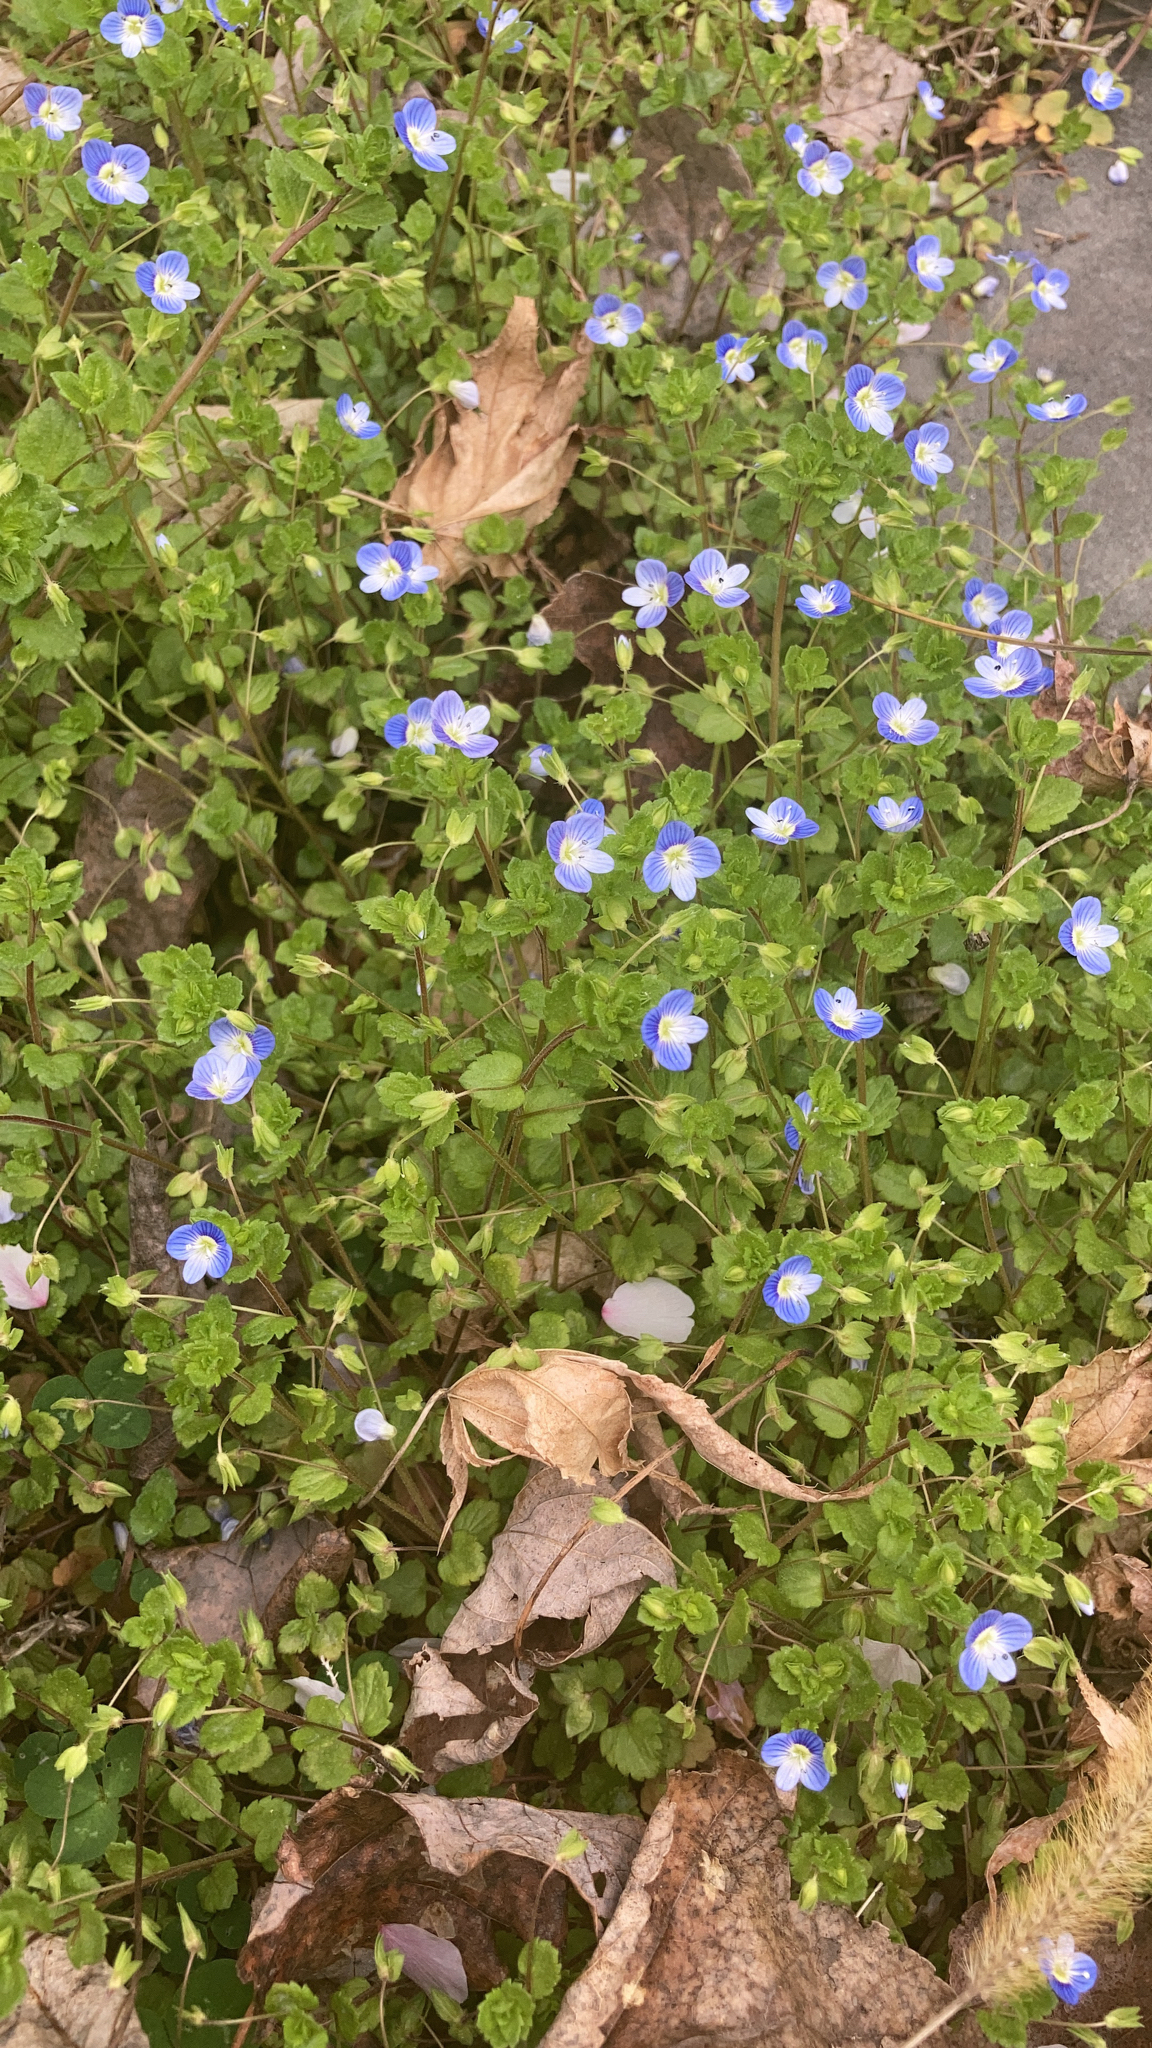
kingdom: Plantae
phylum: Tracheophyta
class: Magnoliopsida
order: Lamiales
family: Plantaginaceae
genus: Veronica
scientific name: Veronica persica
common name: Common field-speedwell
